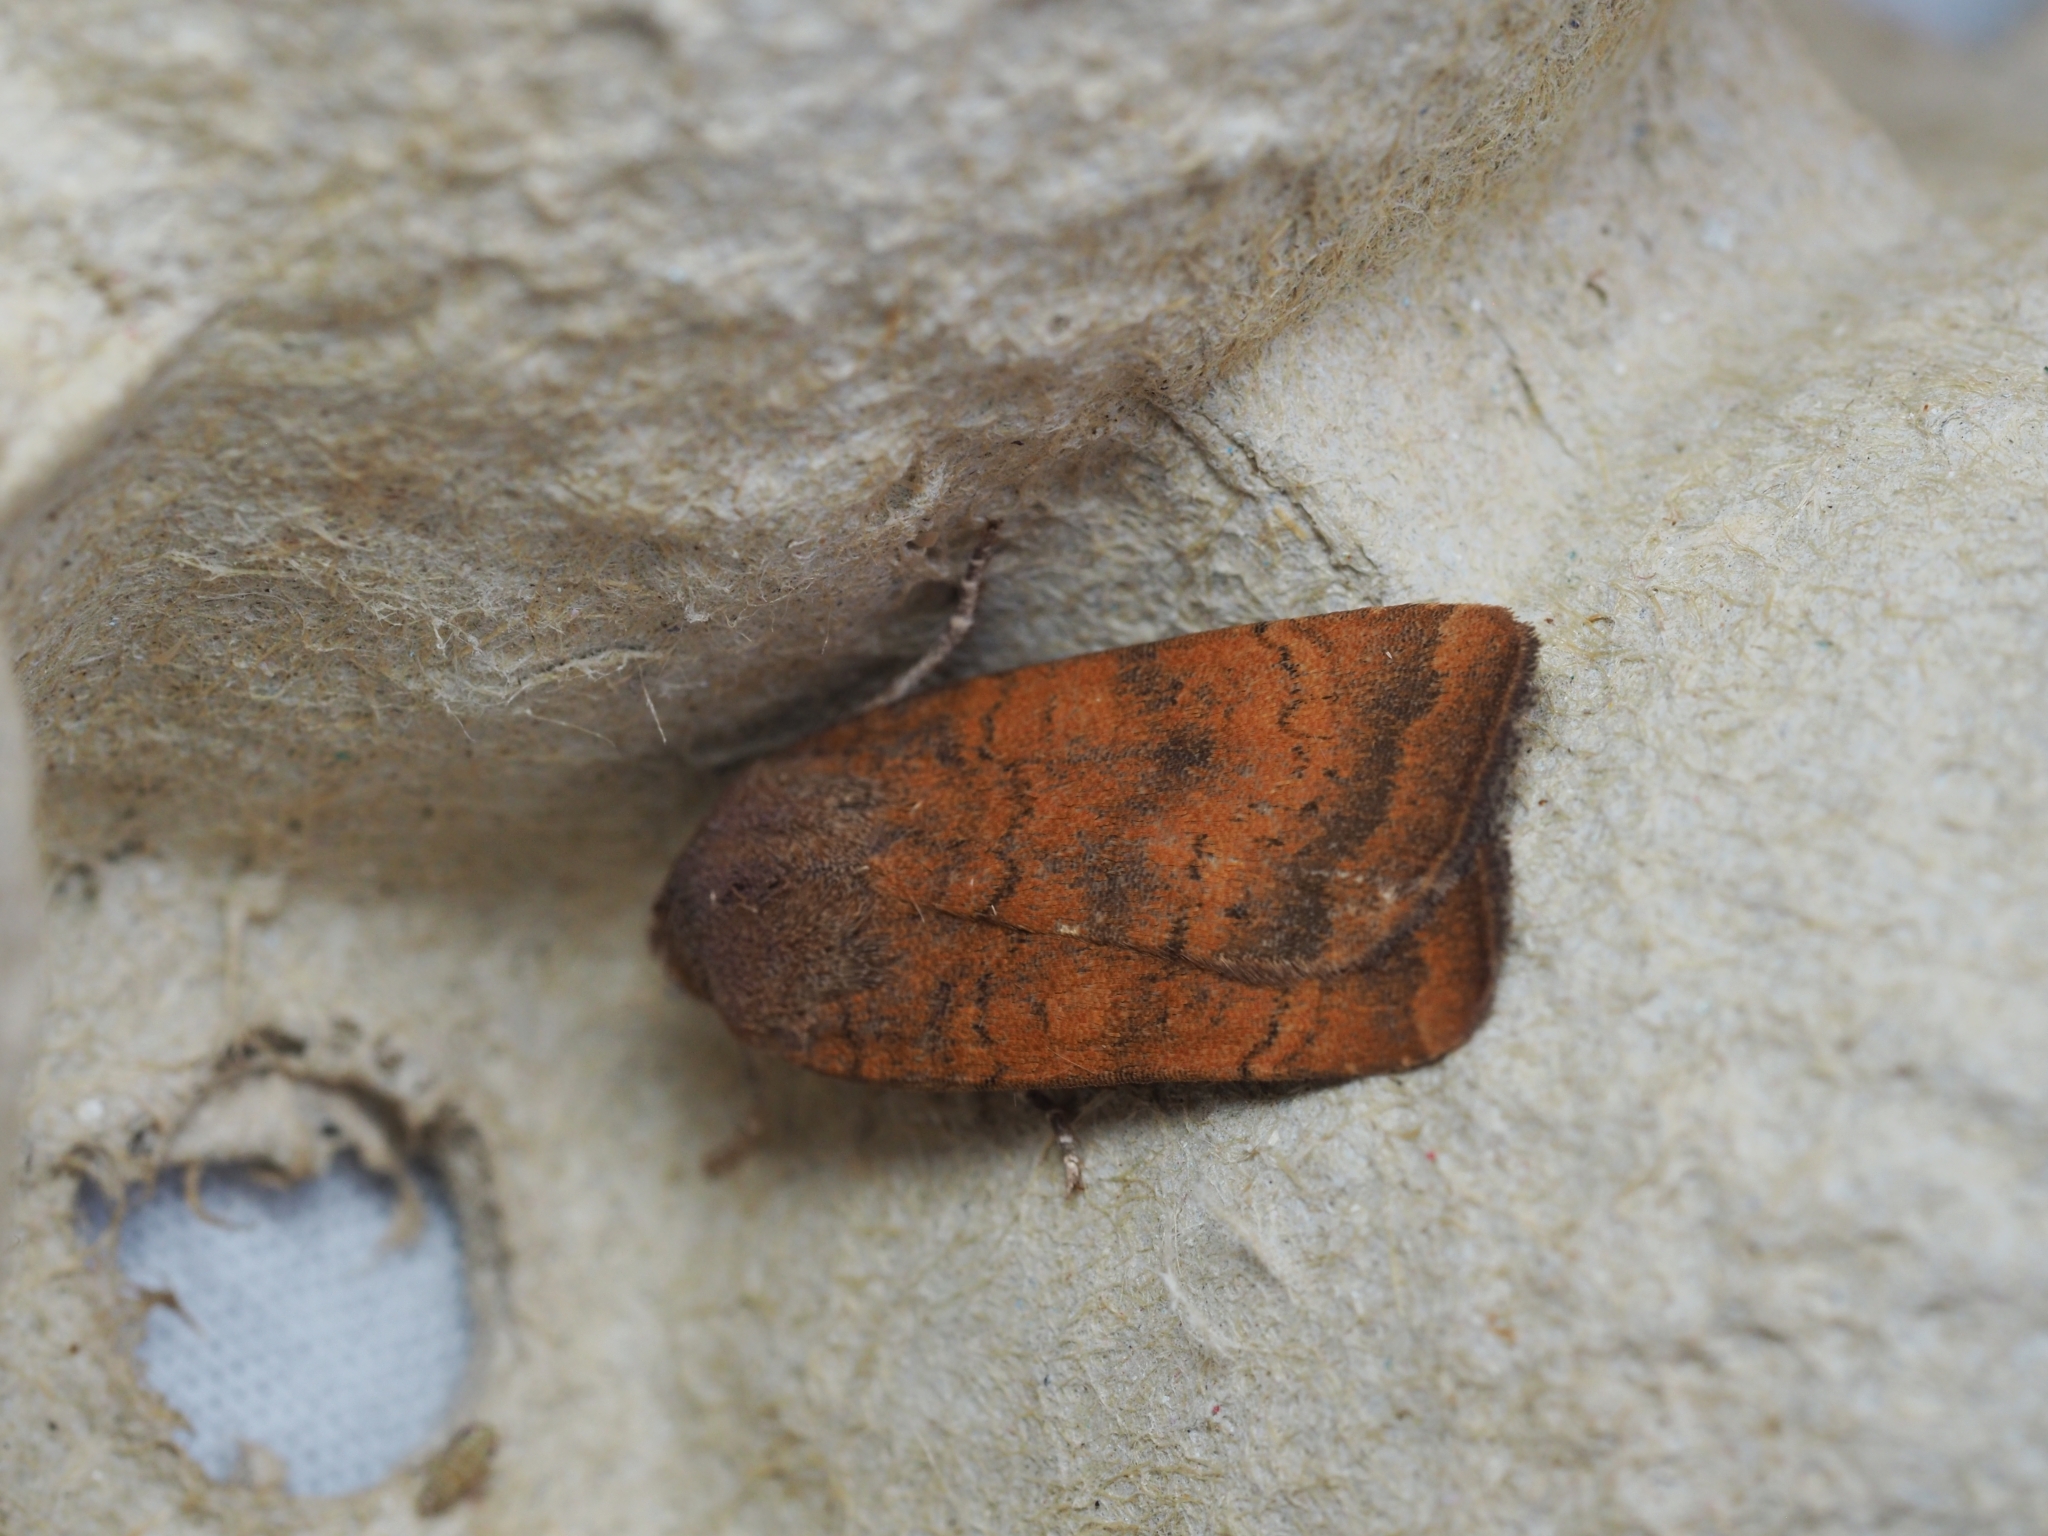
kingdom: Animalia
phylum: Arthropoda
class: Insecta
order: Lepidoptera
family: Noctuidae
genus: Noctua
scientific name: Noctua interjecta
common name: Least yellow underwing
